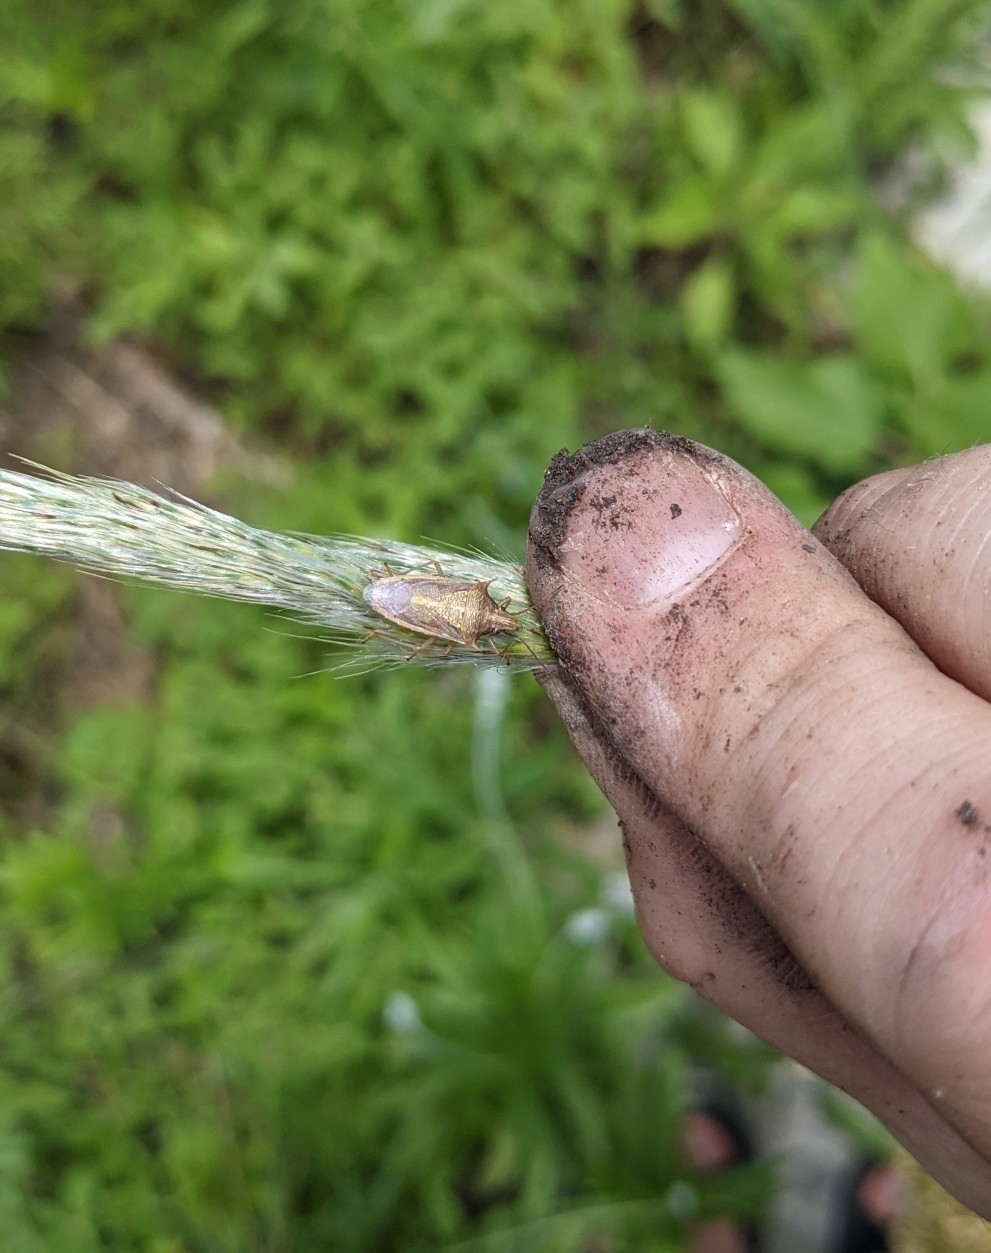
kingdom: Animalia
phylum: Arthropoda
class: Insecta
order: Hemiptera
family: Pentatomidae
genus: Oebalus
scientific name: Oebalus pugnax
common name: Rice stink bug
